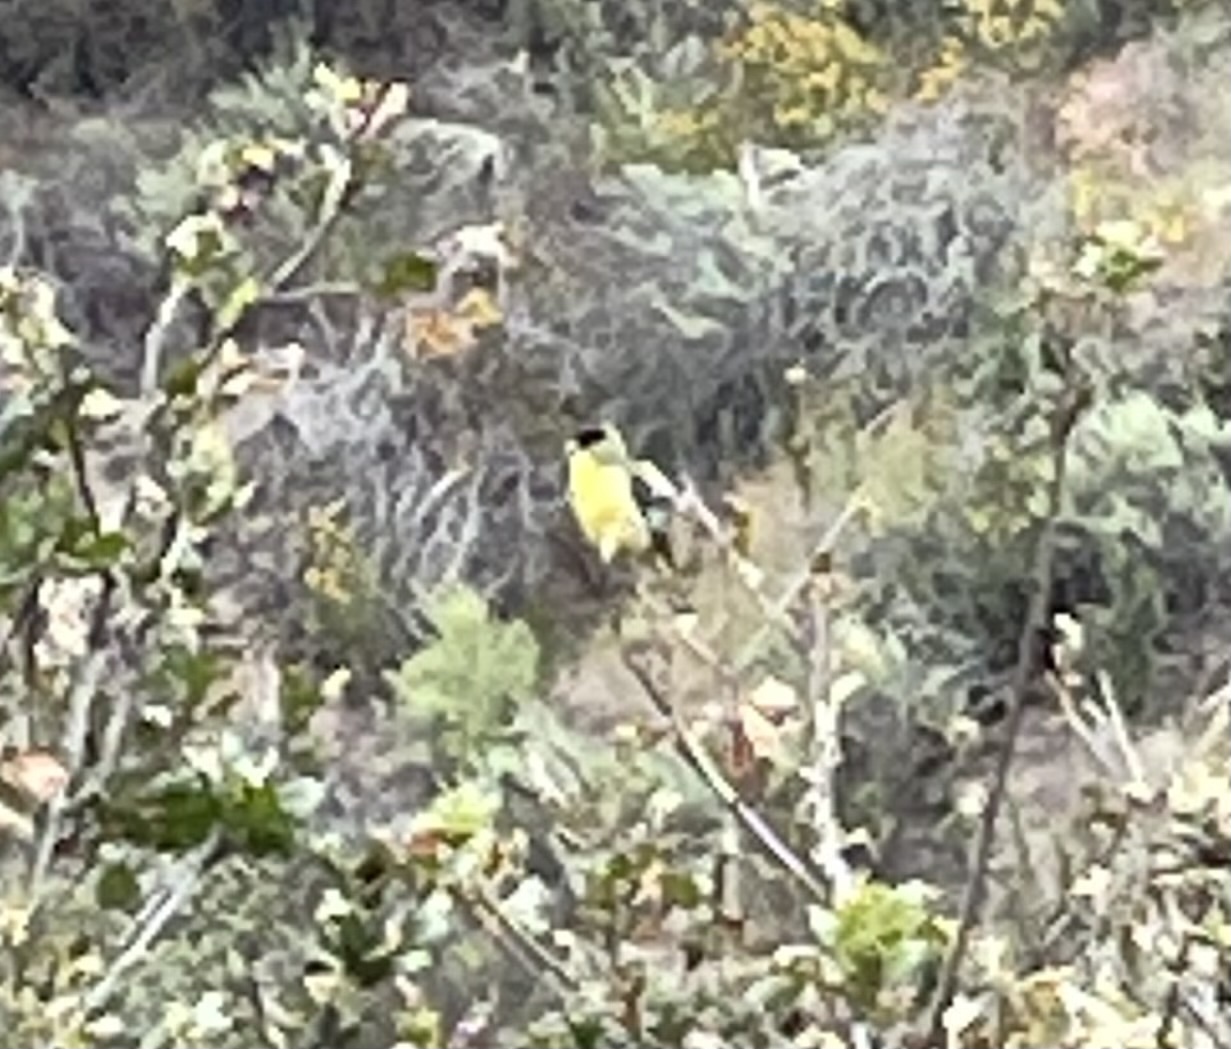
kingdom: Animalia
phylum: Chordata
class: Aves
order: Passeriformes
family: Fringillidae
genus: Spinus
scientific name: Spinus psaltria
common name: Lesser goldfinch
